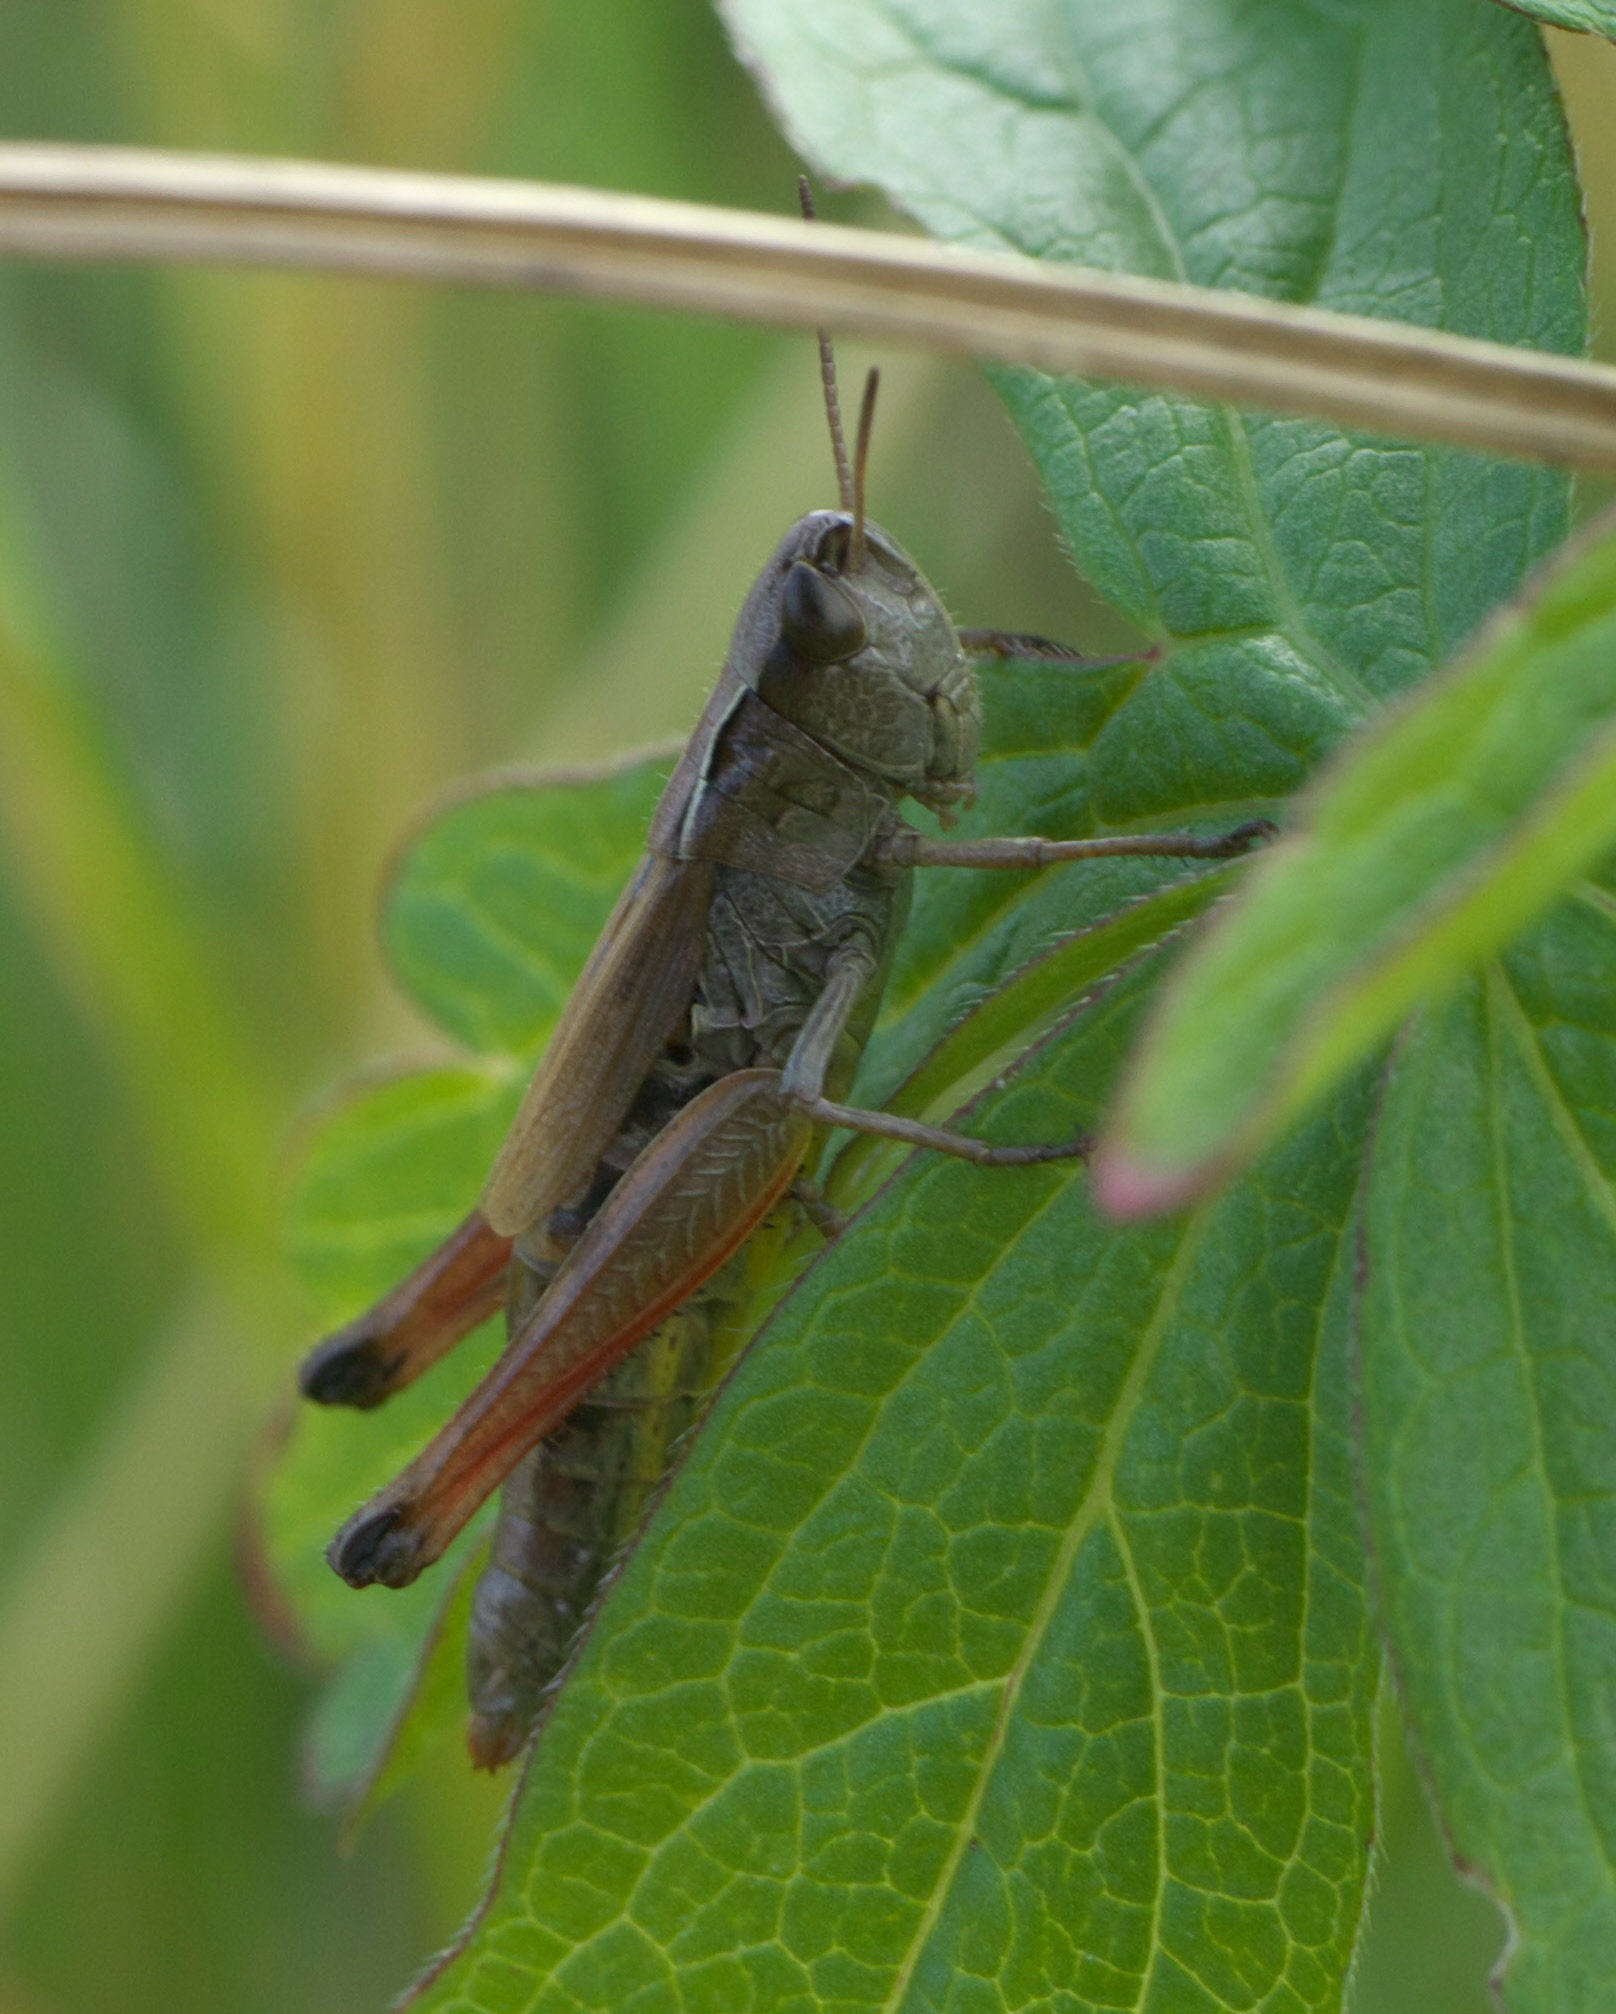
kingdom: Animalia
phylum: Arthropoda
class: Insecta
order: Orthoptera
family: Acrididae
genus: Pseudochorthippus
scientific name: Pseudochorthippus curtipennis
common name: Marsh meadow grasshopper
